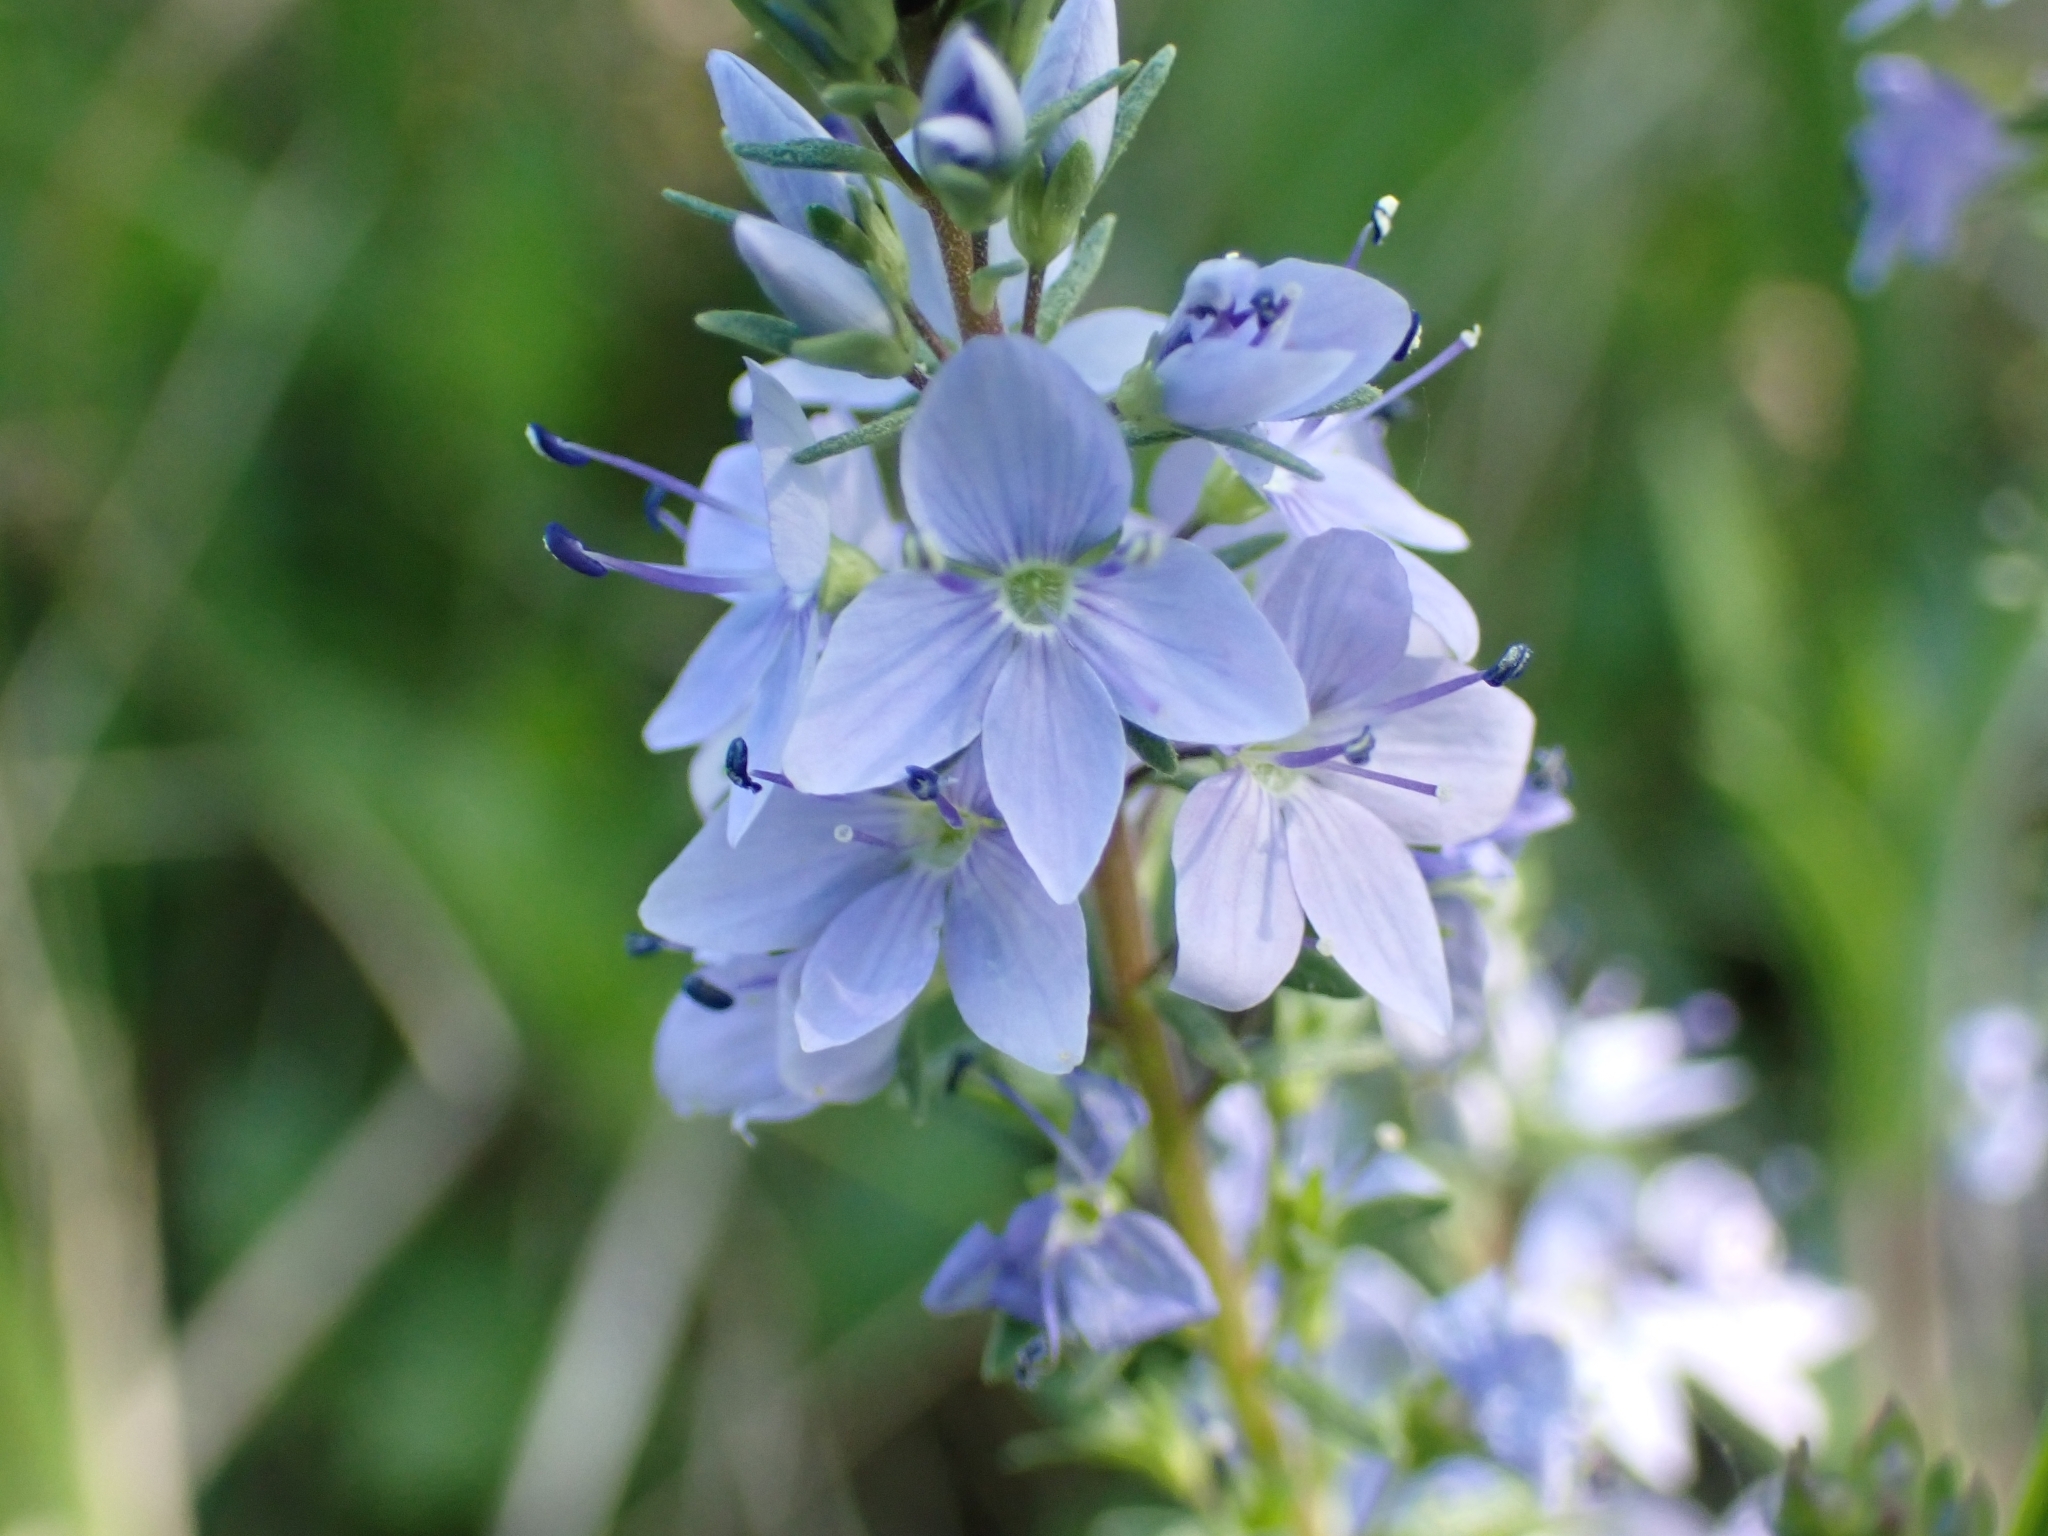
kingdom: Plantae
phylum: Tracheophyta
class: Magnoliopsida
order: Lamiales
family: Plantaginaceae
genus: Veronica
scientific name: Veronica prostrata
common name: Prostrate speedwell
